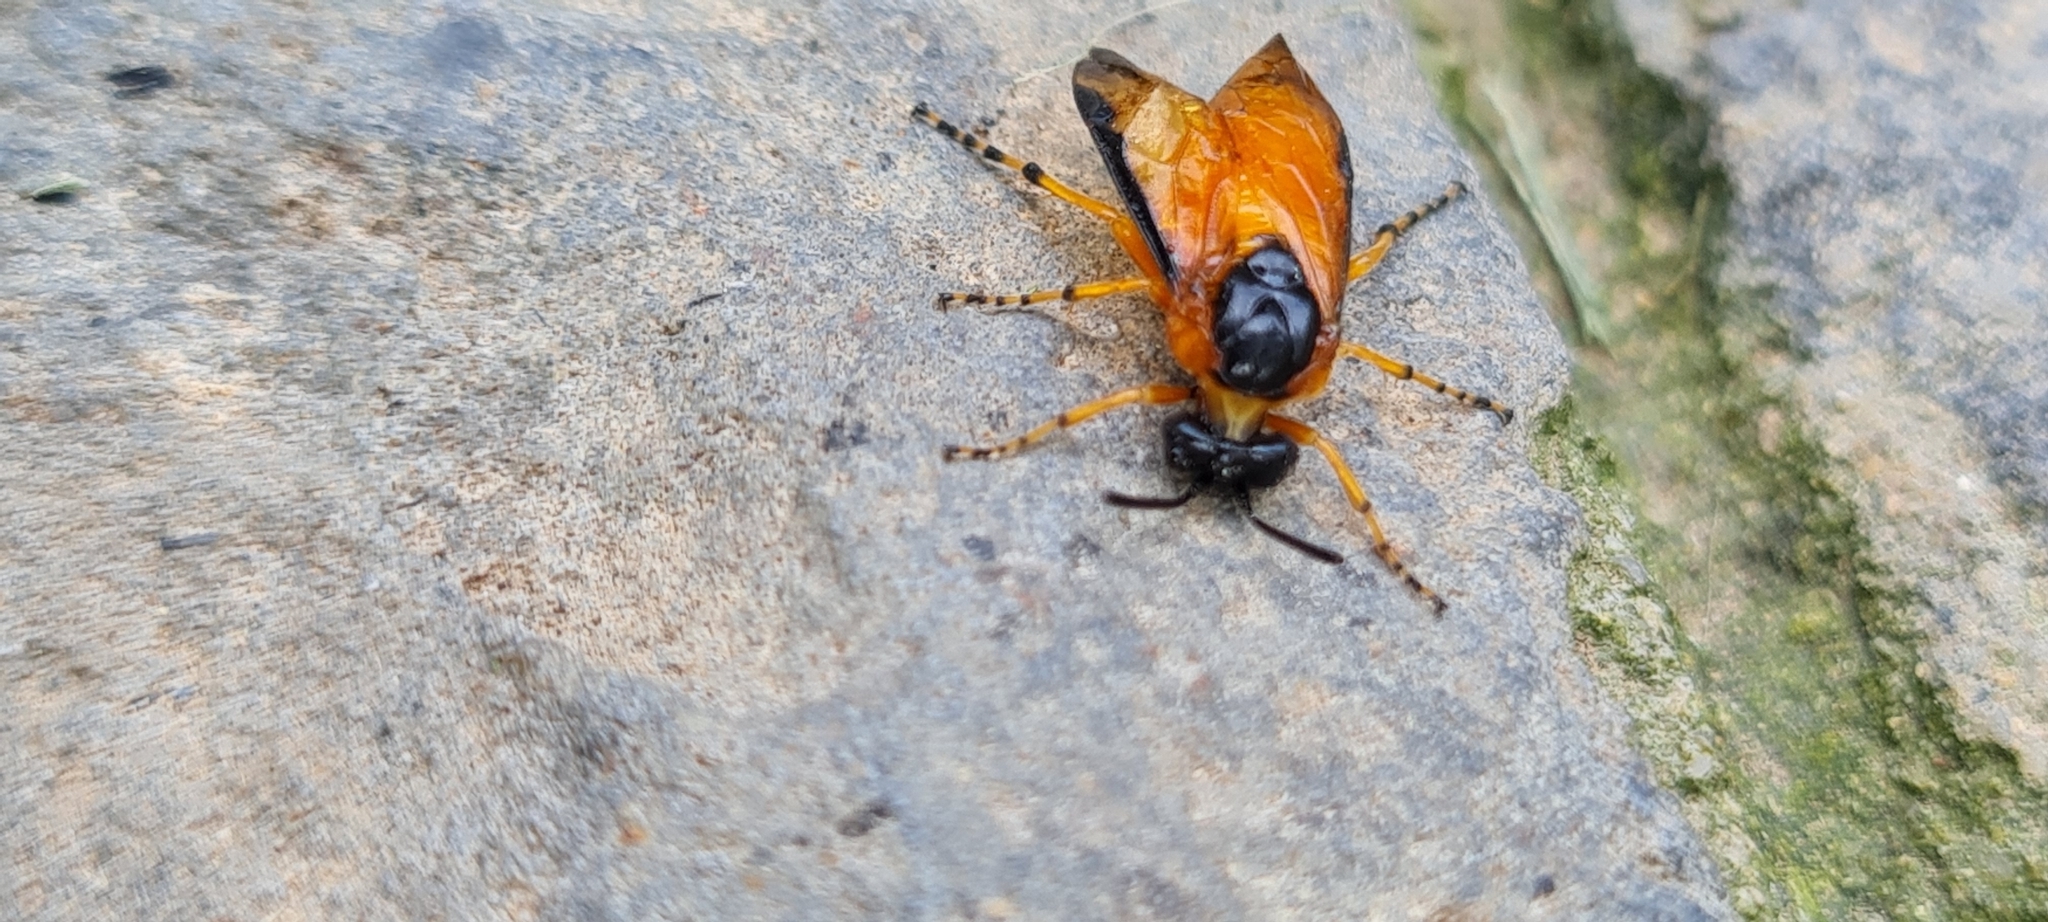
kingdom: Animalia
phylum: Arthropoda
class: Insecta
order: Hymenoptera
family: Argidae
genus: Arge
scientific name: Arge ochropus
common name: Argid sawfly
